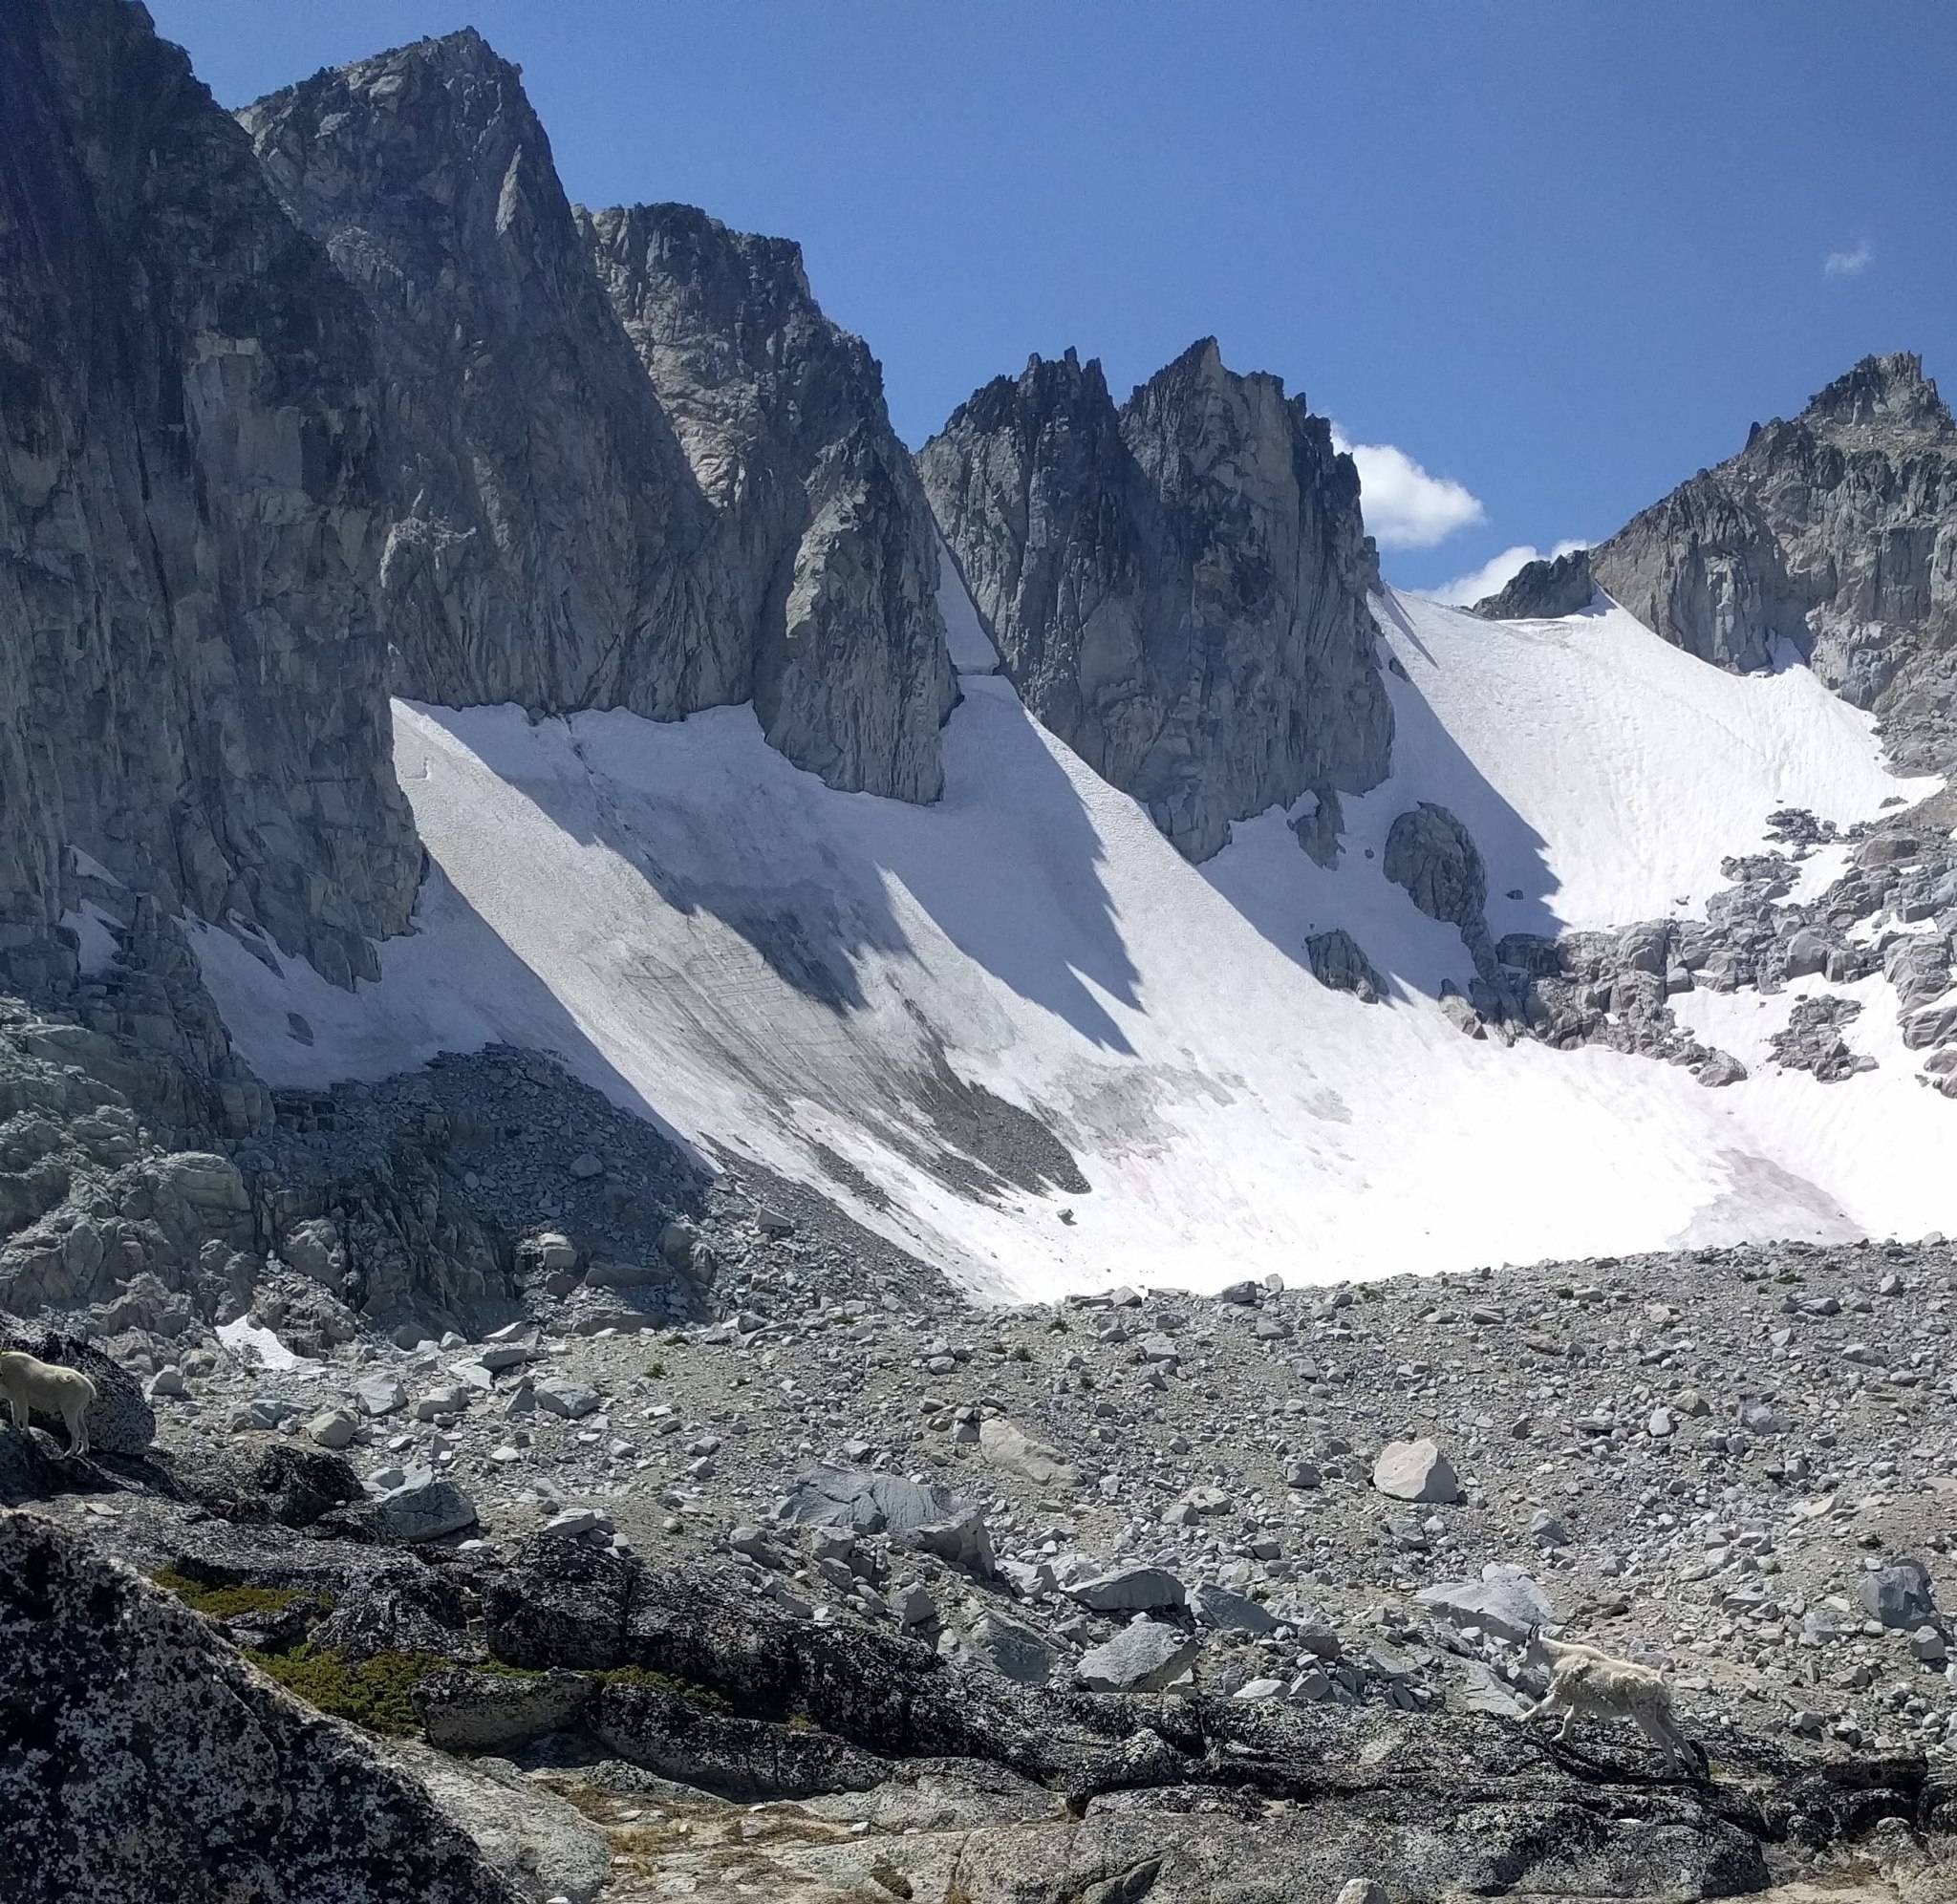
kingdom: Animalia
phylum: Chordata
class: Mammalia
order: Artiodactyla
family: Bovidae
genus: Oreamnos
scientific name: Oreamnos americanus
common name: Mountain goat
